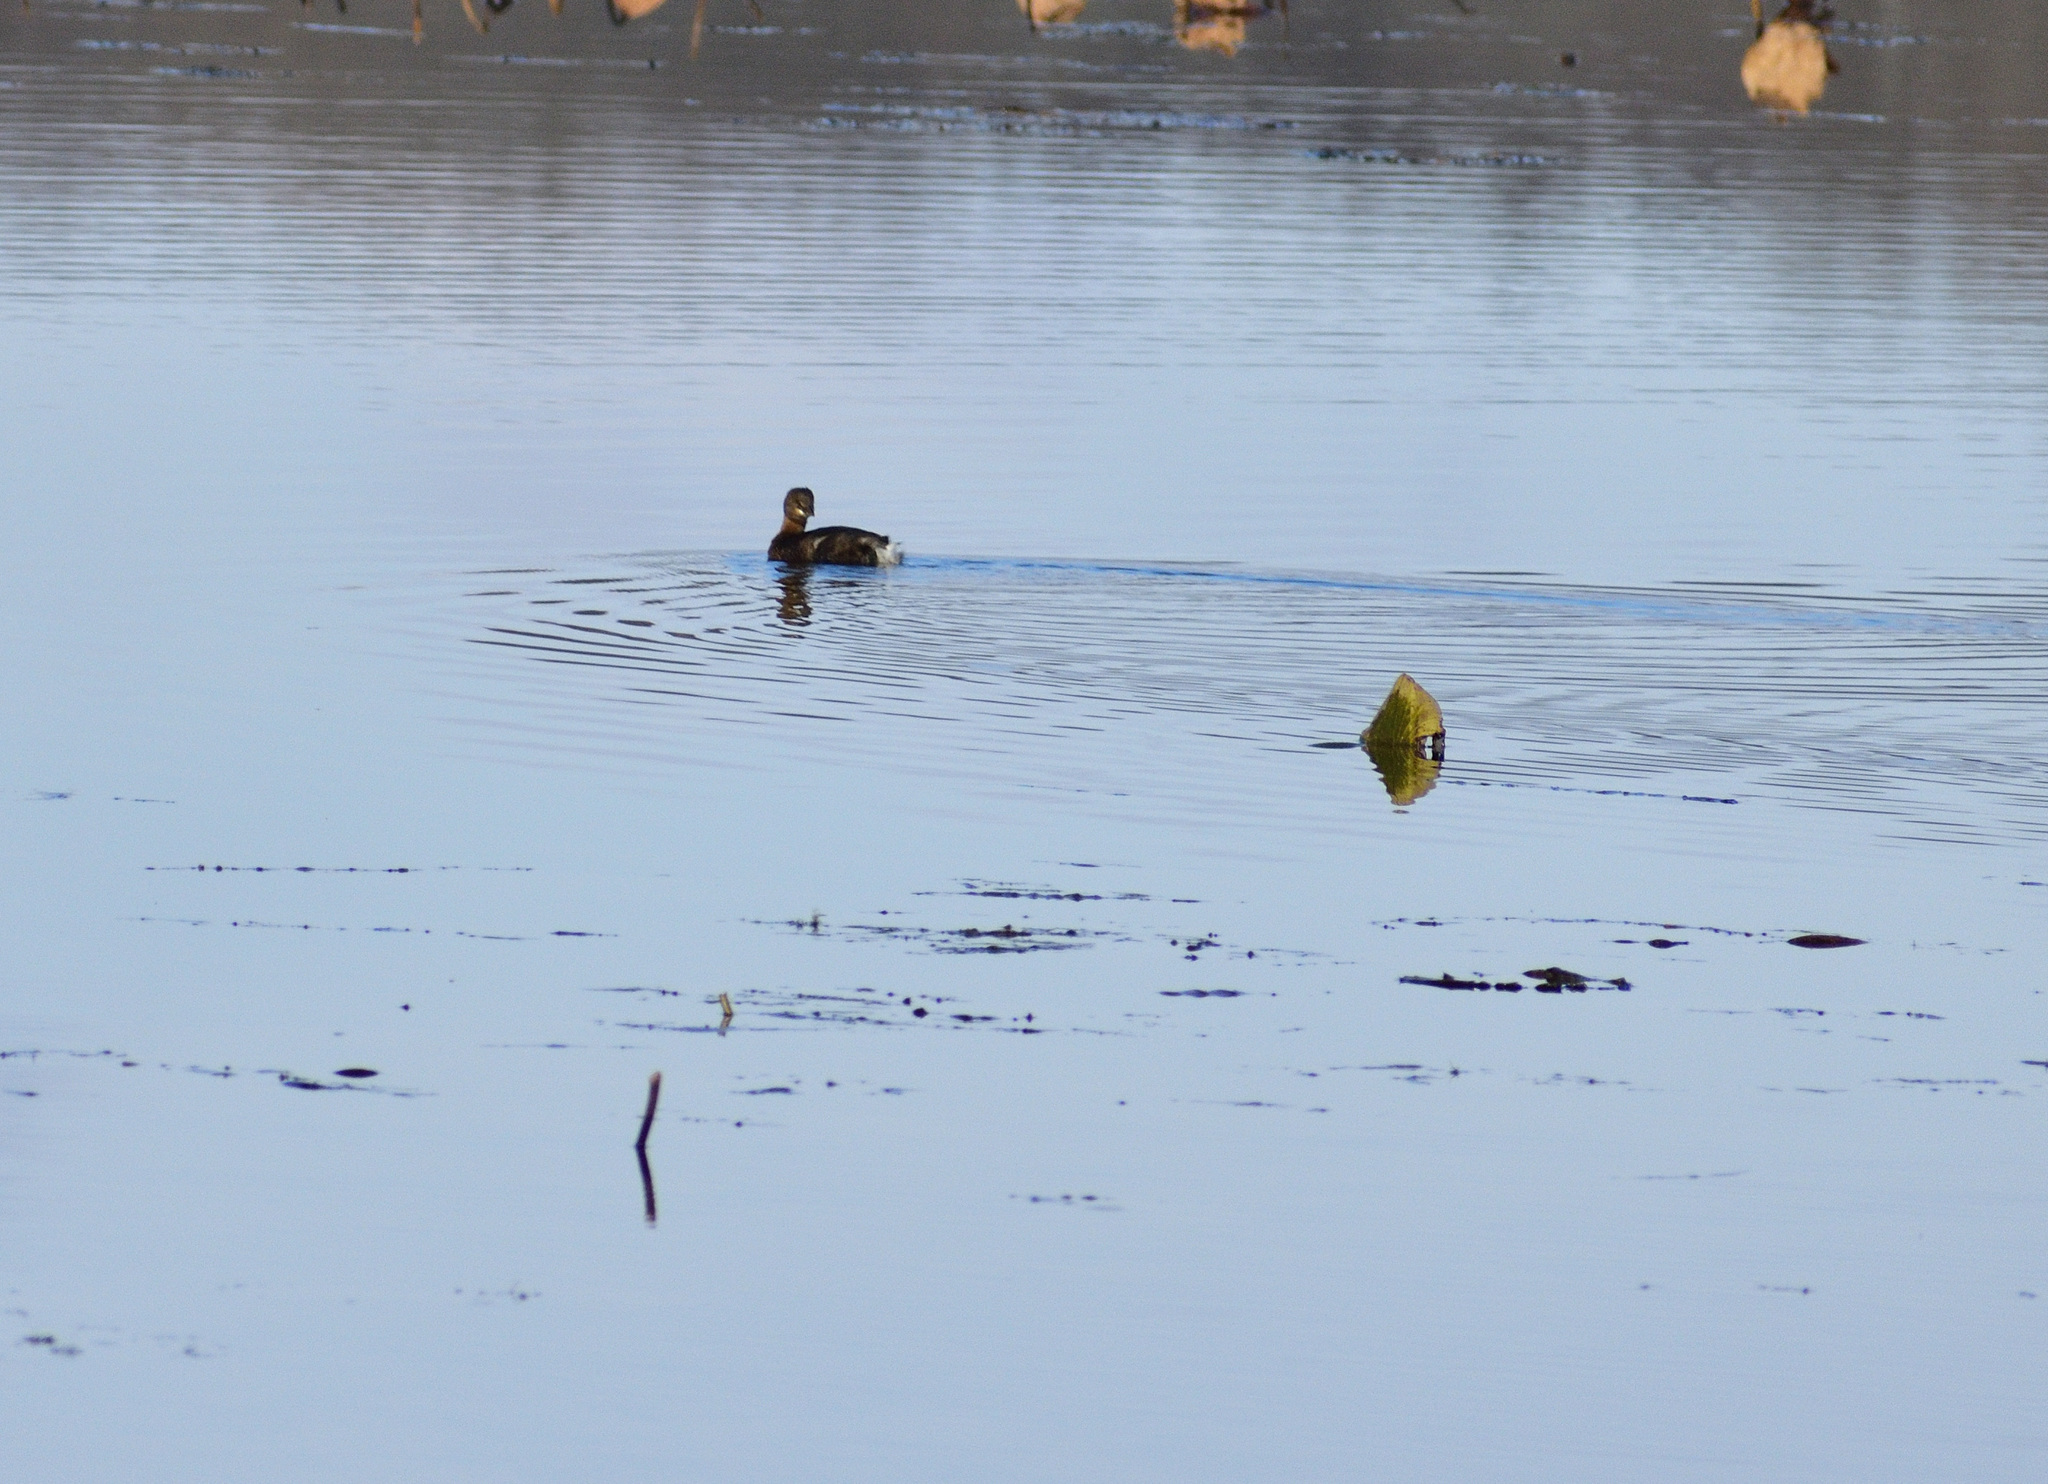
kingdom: Animalia
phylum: Chordata
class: Aves
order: Podicipediformes
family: Podicipedidae
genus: Podilymbus
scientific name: Podilymbus podiceps
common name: Pied-billed grebe
